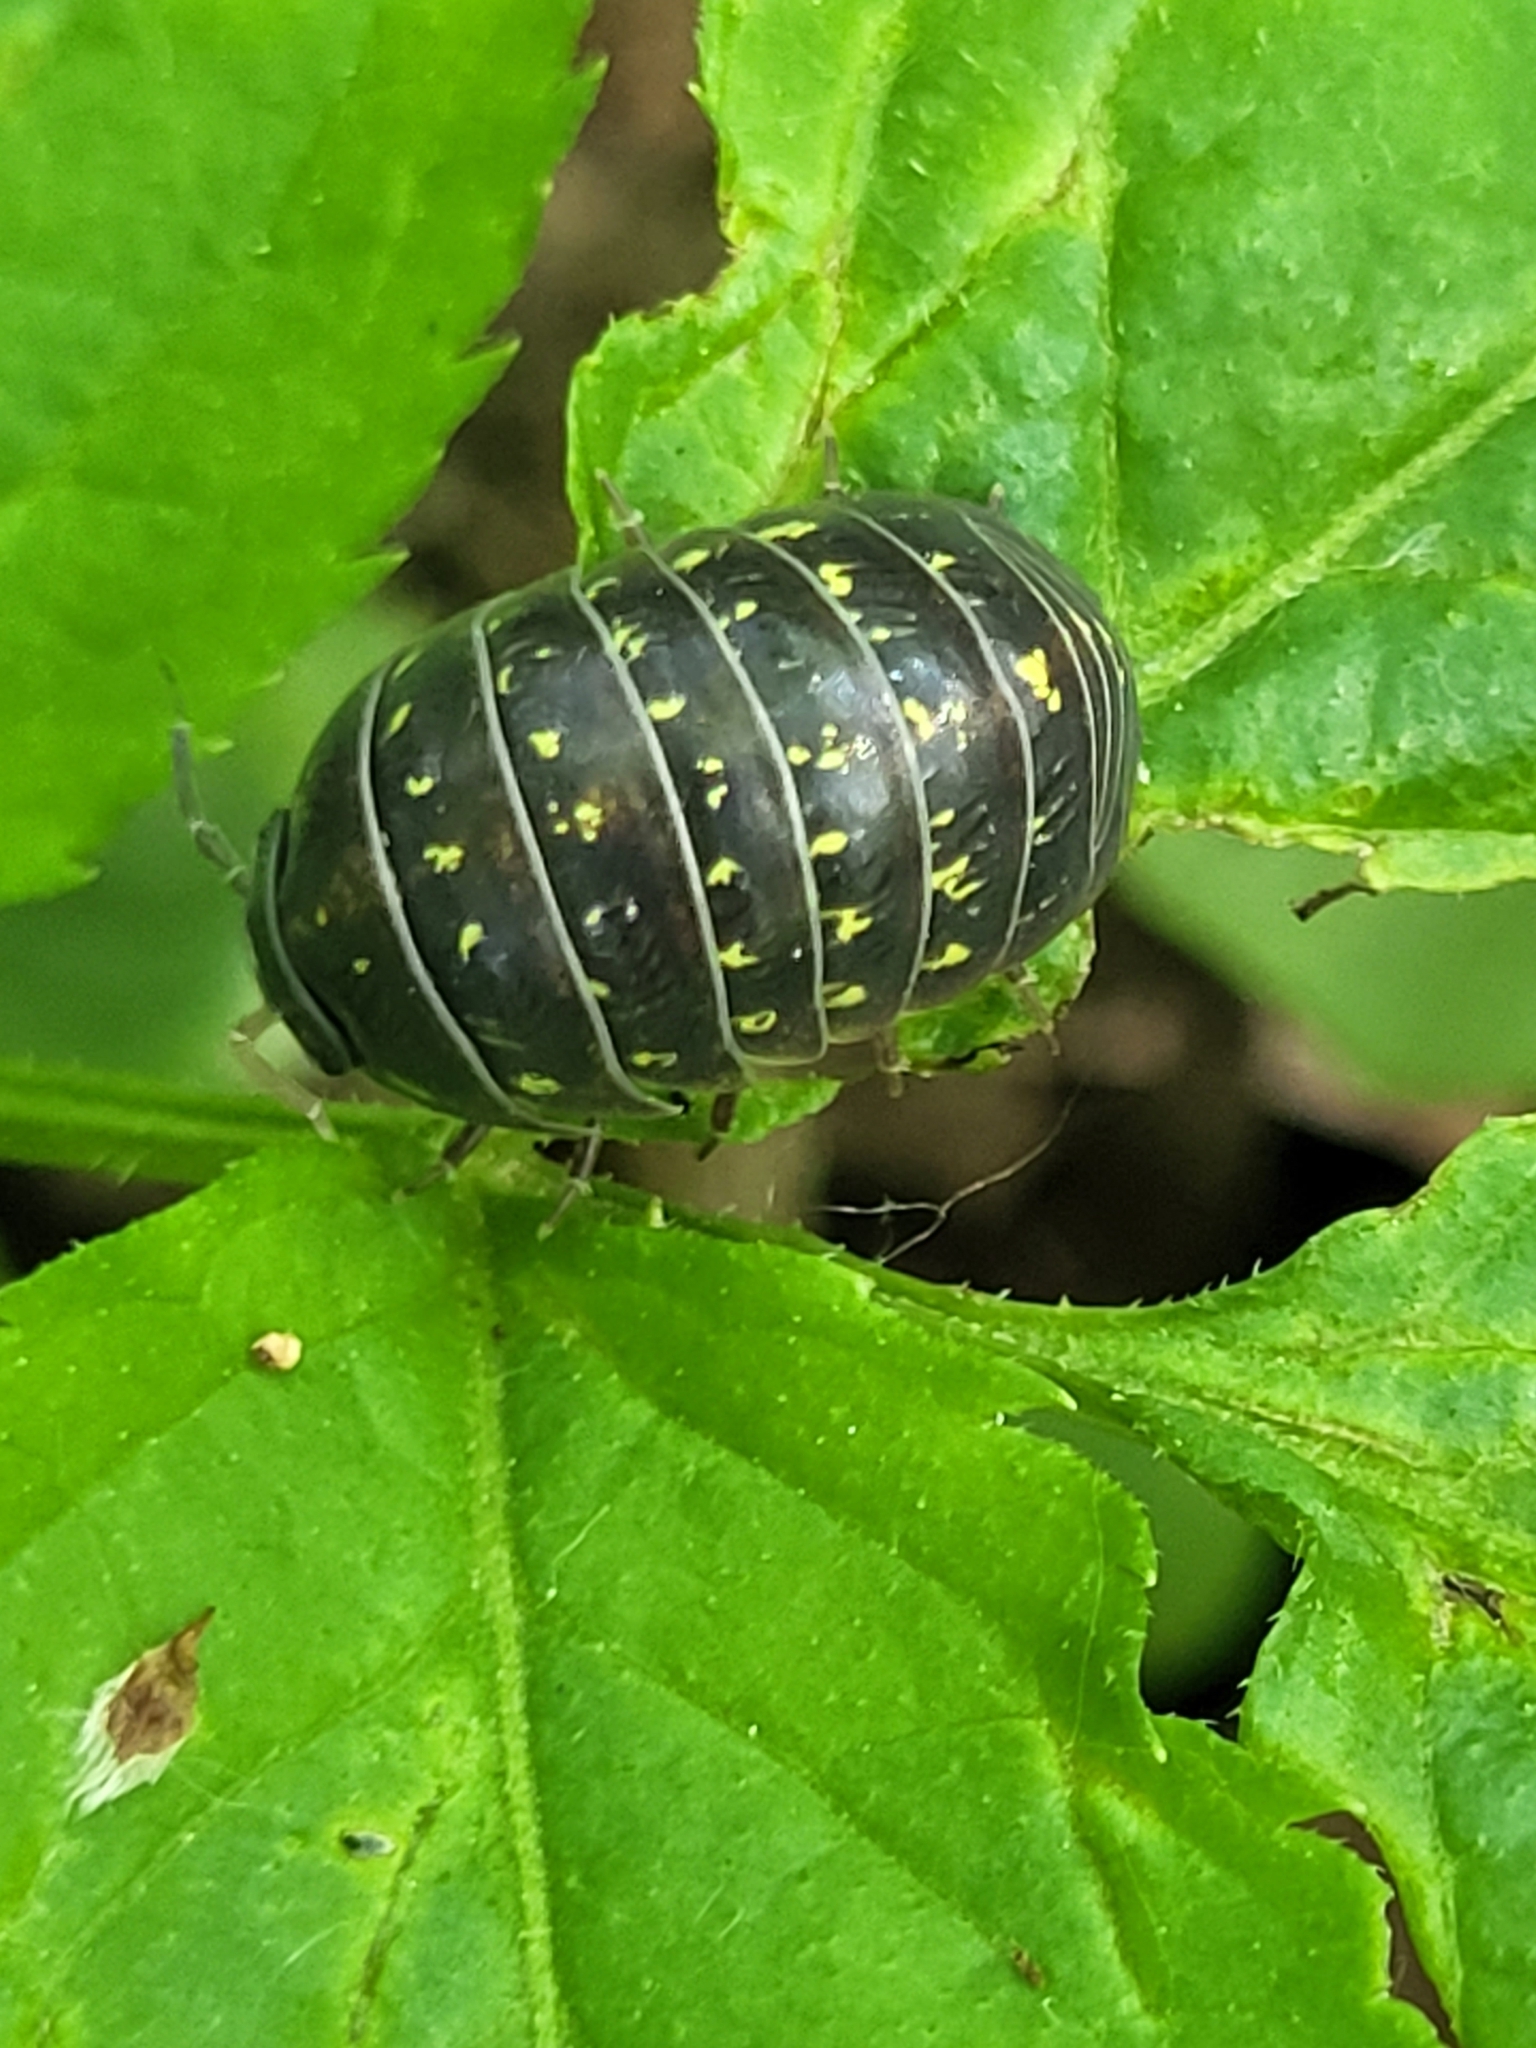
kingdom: Animalia
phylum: Arthropoda
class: Malacostraca
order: Isopoda
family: Armadillidiidae
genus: Armadillidium
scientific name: Armadillidium vulgare
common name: Common pill woodlouse
